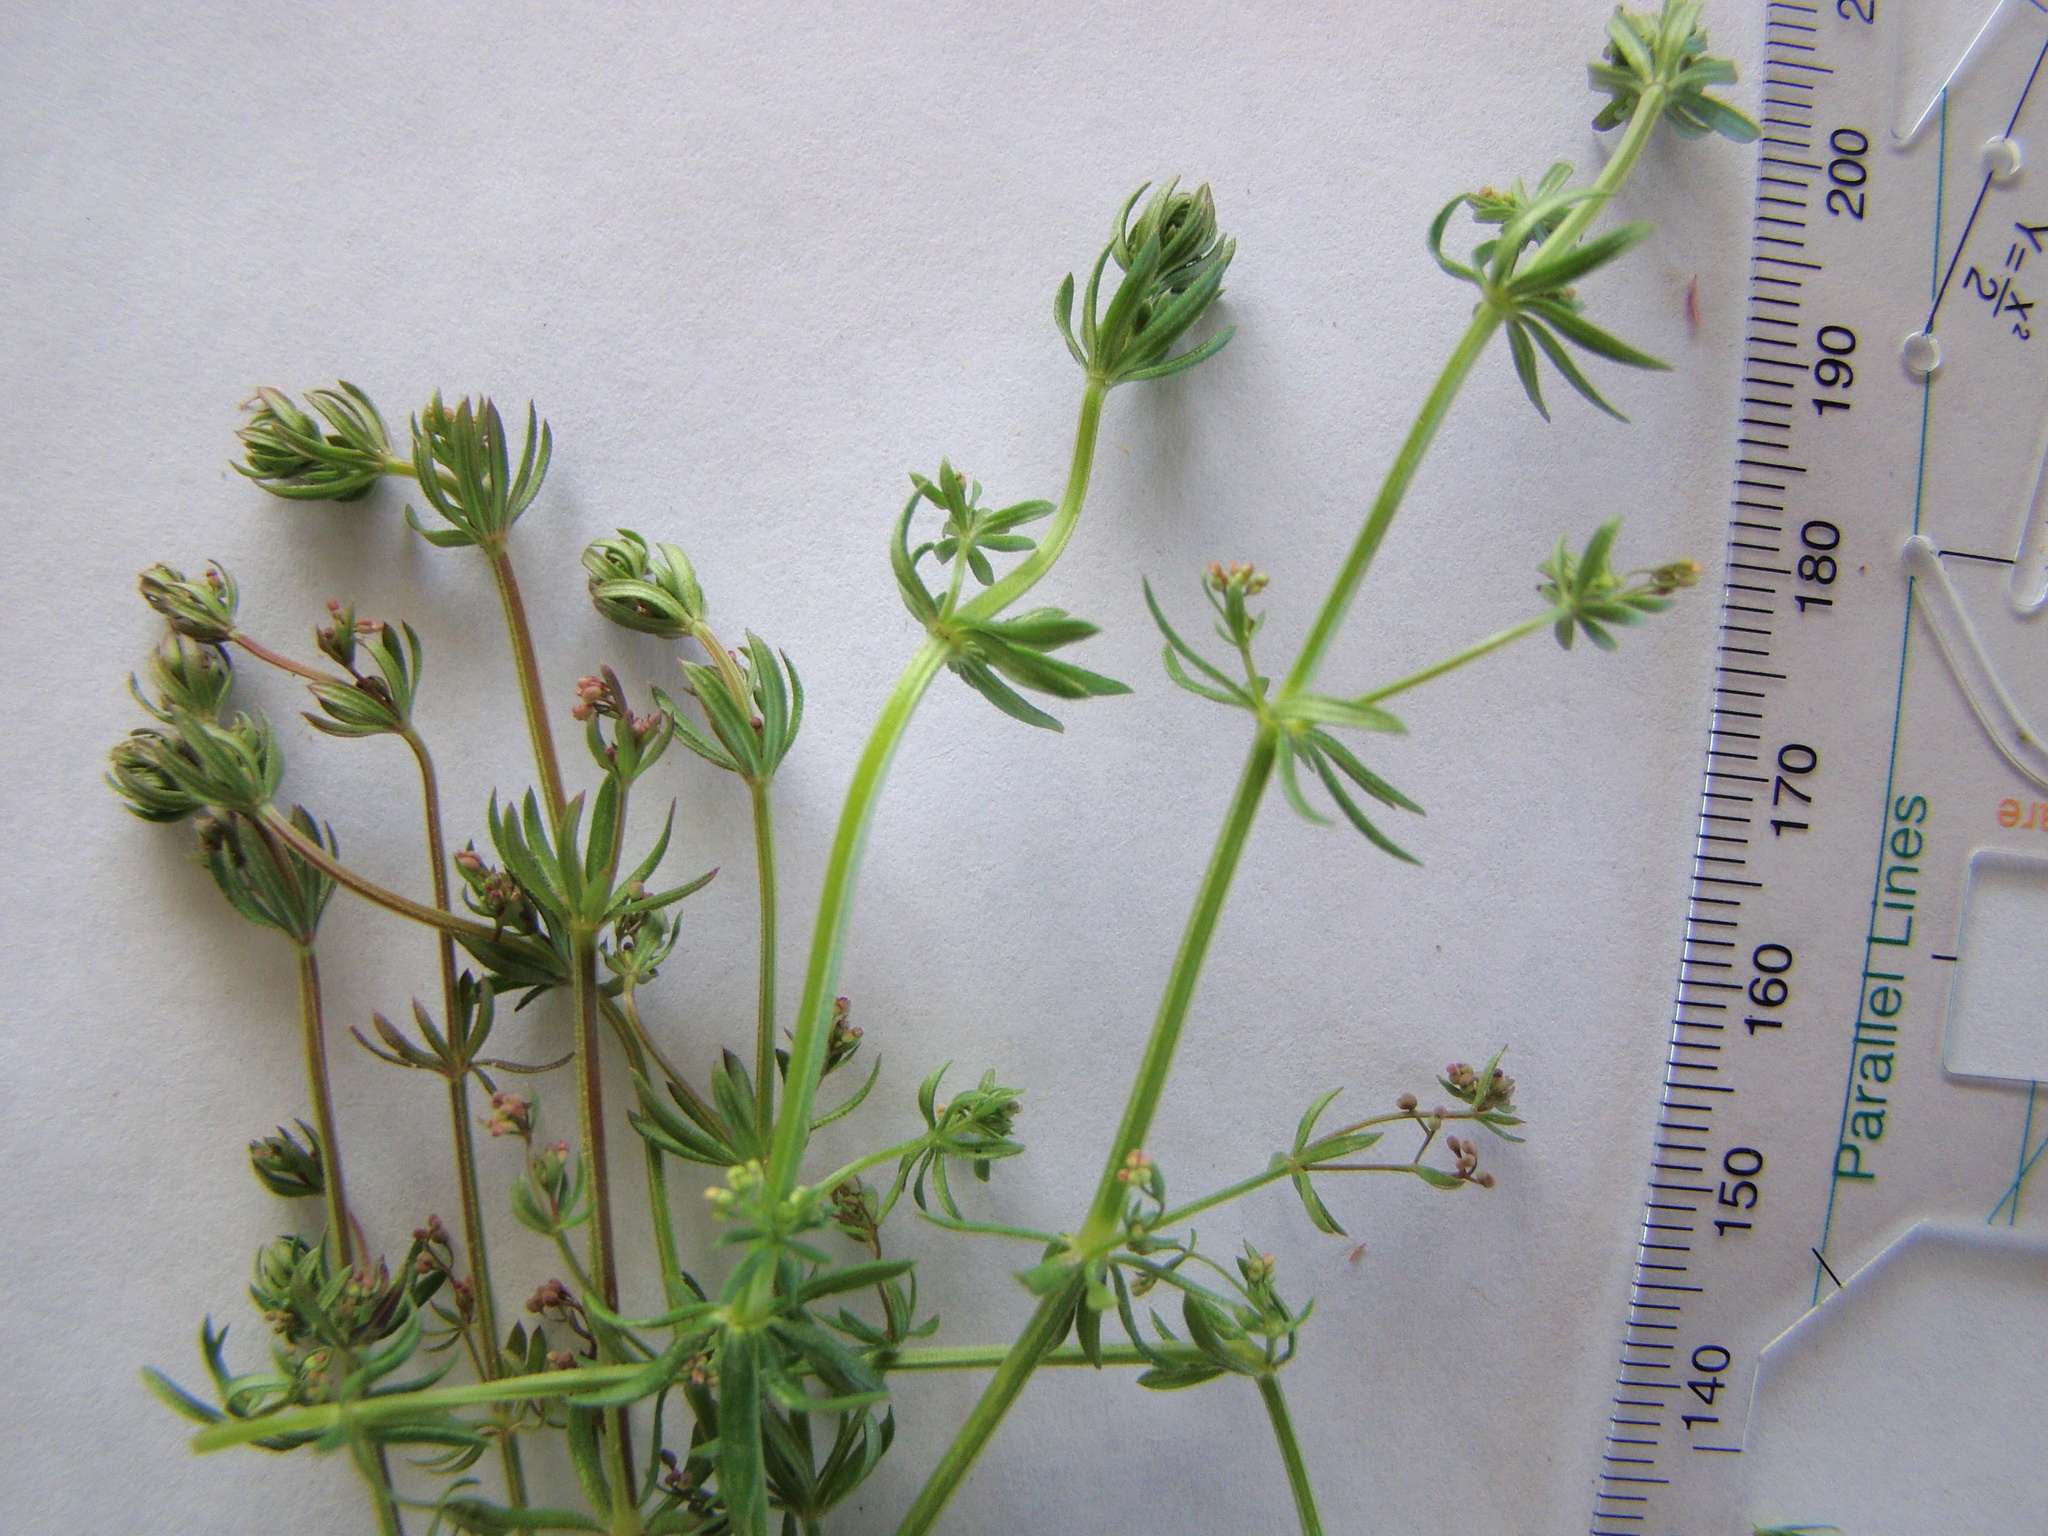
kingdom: Plantae
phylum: Tracheophyta
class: Magnoliopsida
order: Gentianales
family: Rubiaceae
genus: Galium
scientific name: Galium uliginosum
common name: Fen bedstraw
